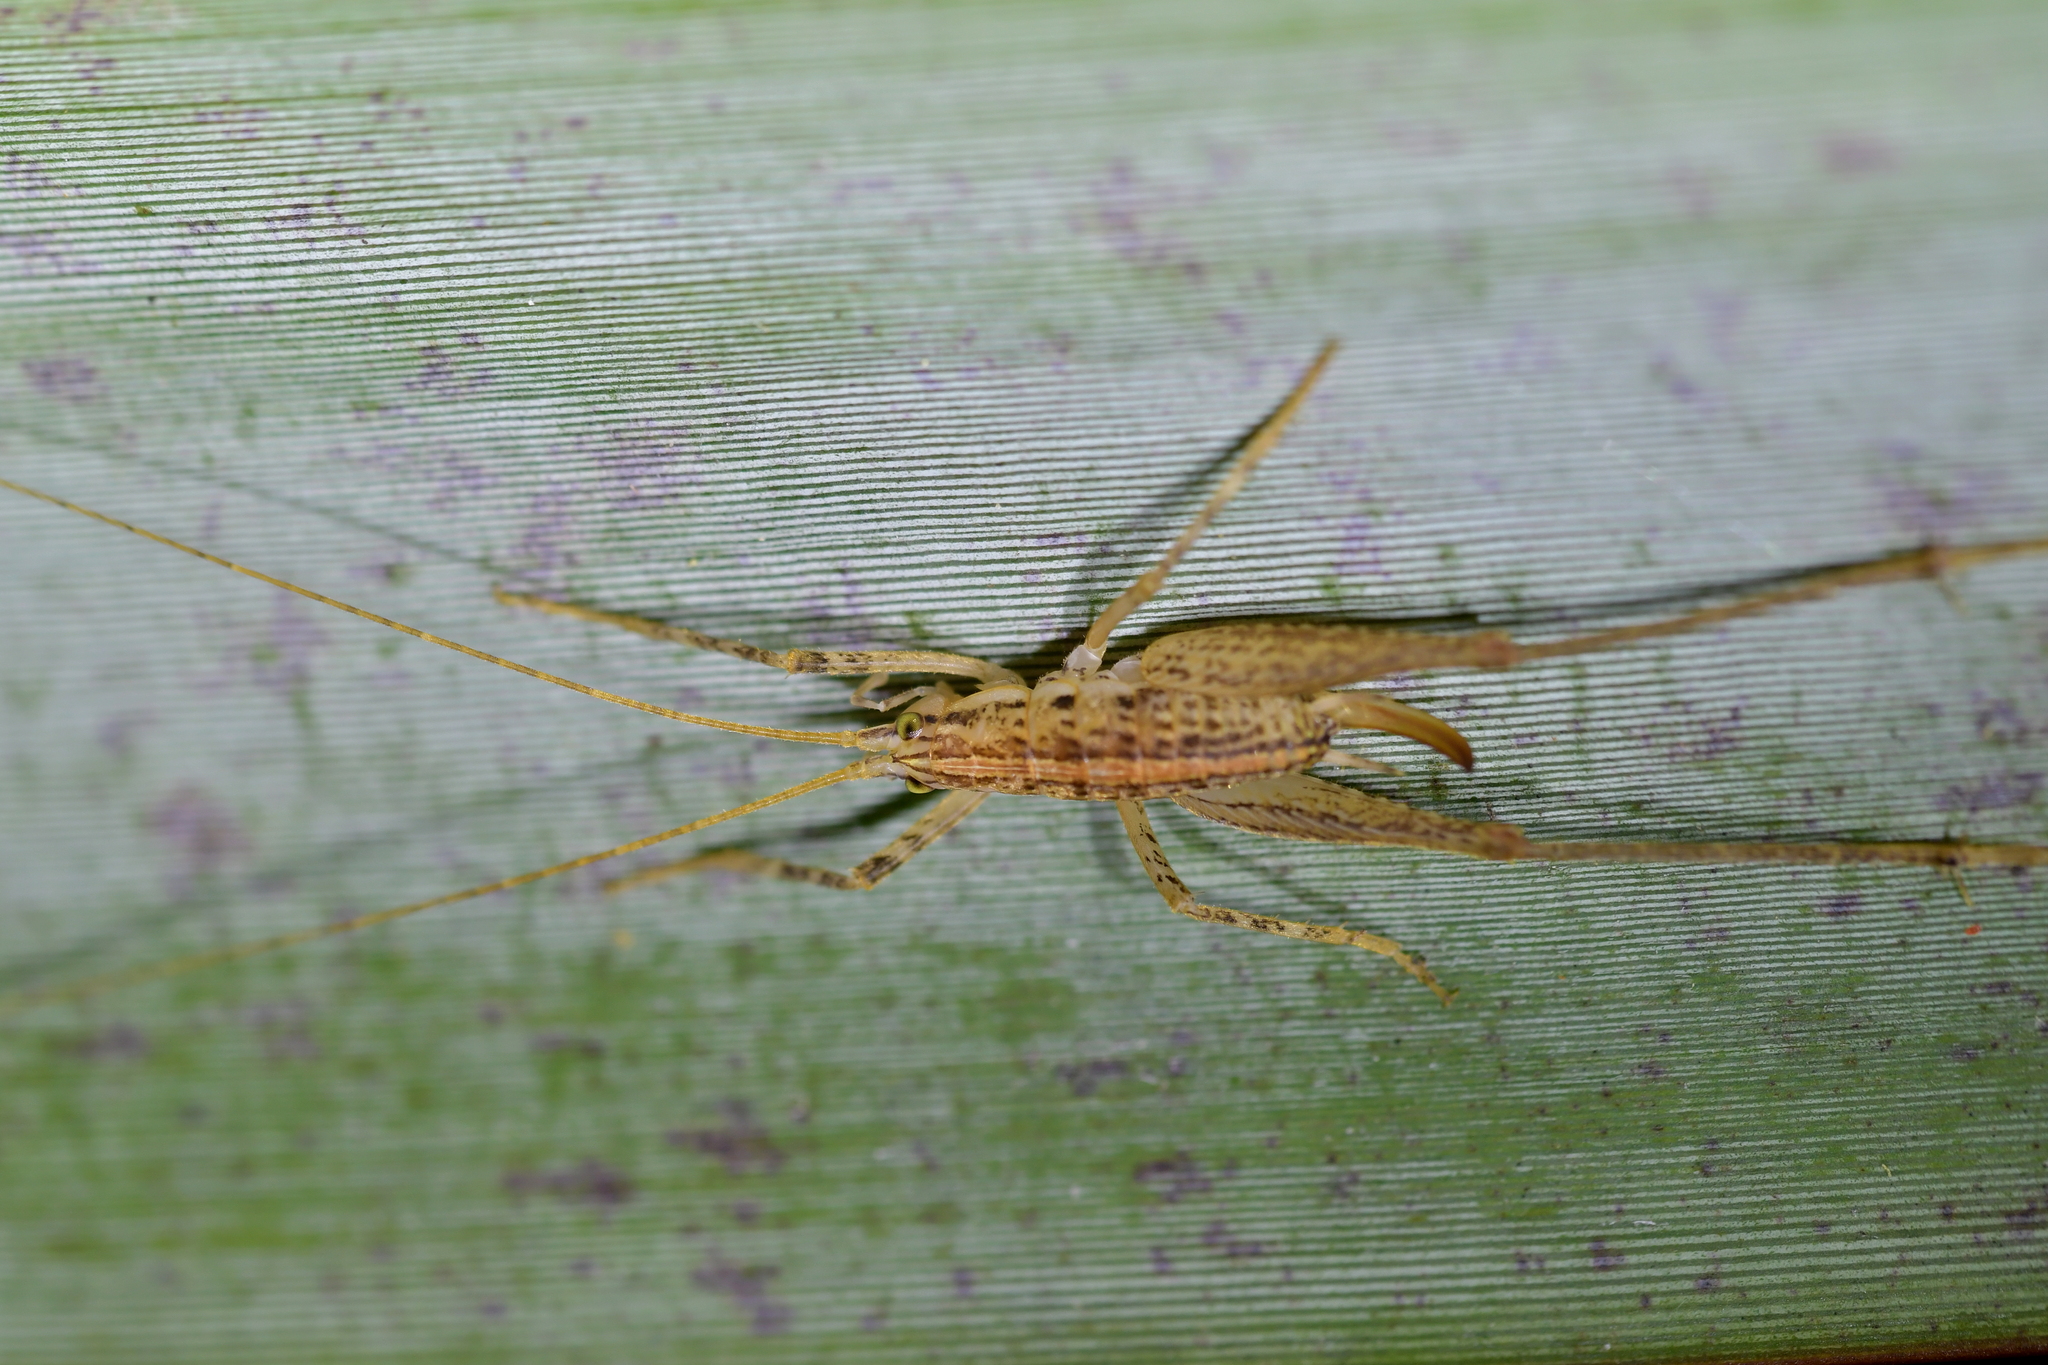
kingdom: Animalia
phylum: Arthropoda
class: Insecta
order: Orthoptera
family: Rhaphidophoridae
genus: Talitropsis
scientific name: Talitropsis poduroides
